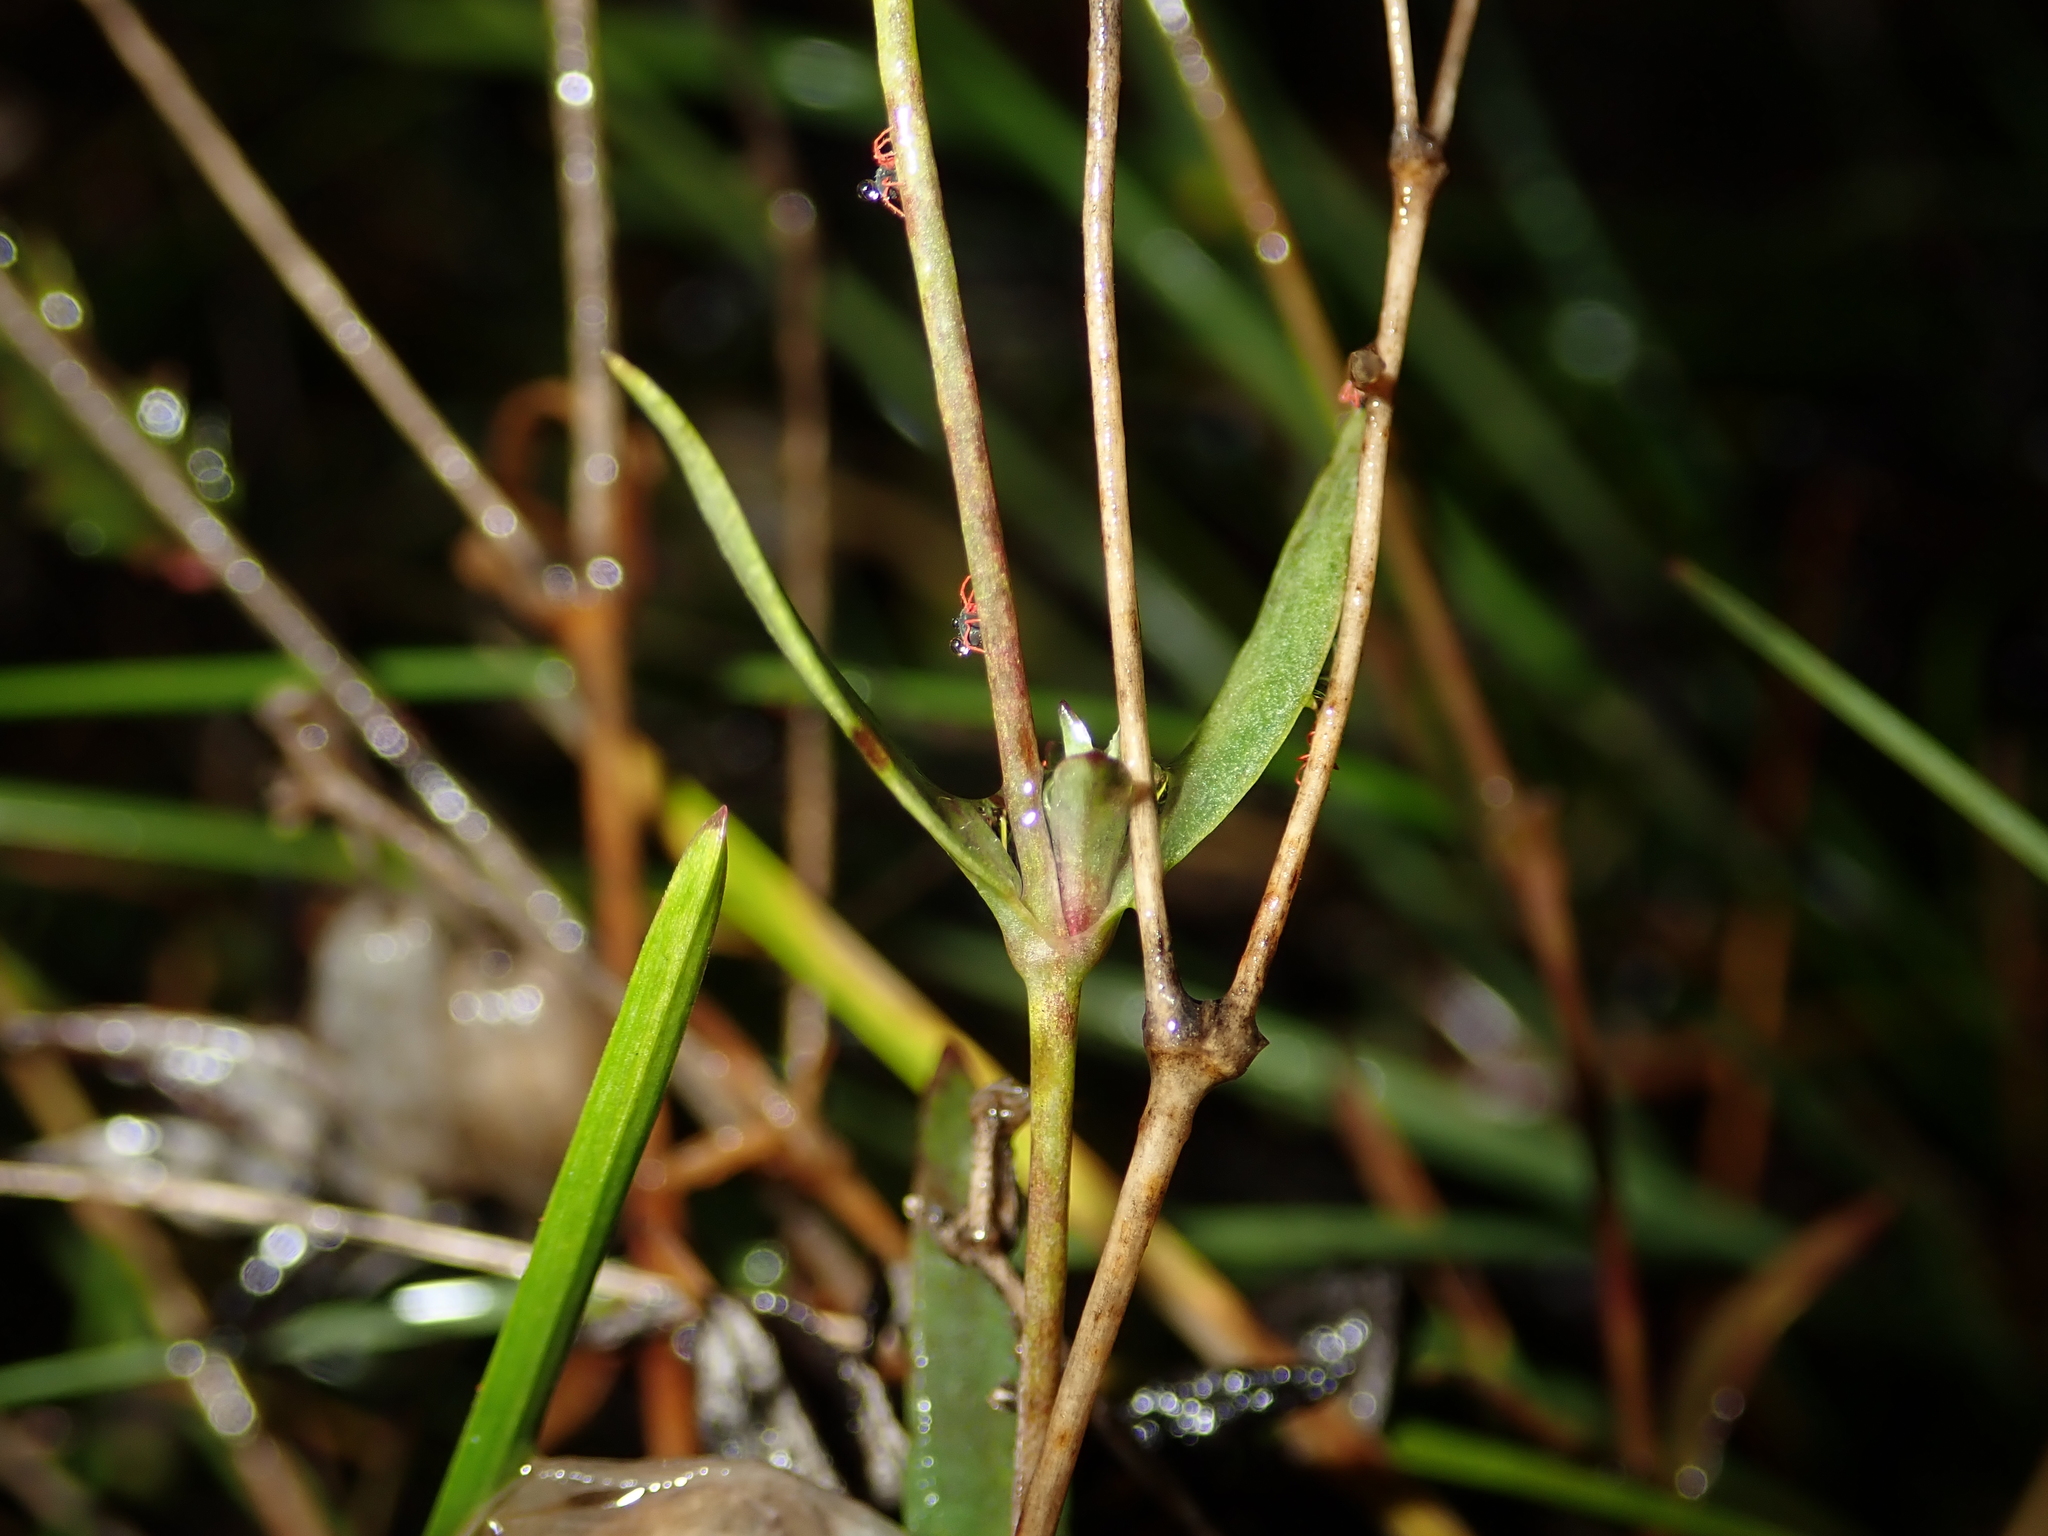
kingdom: Plantae
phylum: Tracheophyta
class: Magnoliopsida
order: Caryophyllales
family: Caryophyllaceae
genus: Silene
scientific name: Silene vulgaris
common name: Bladder campion
